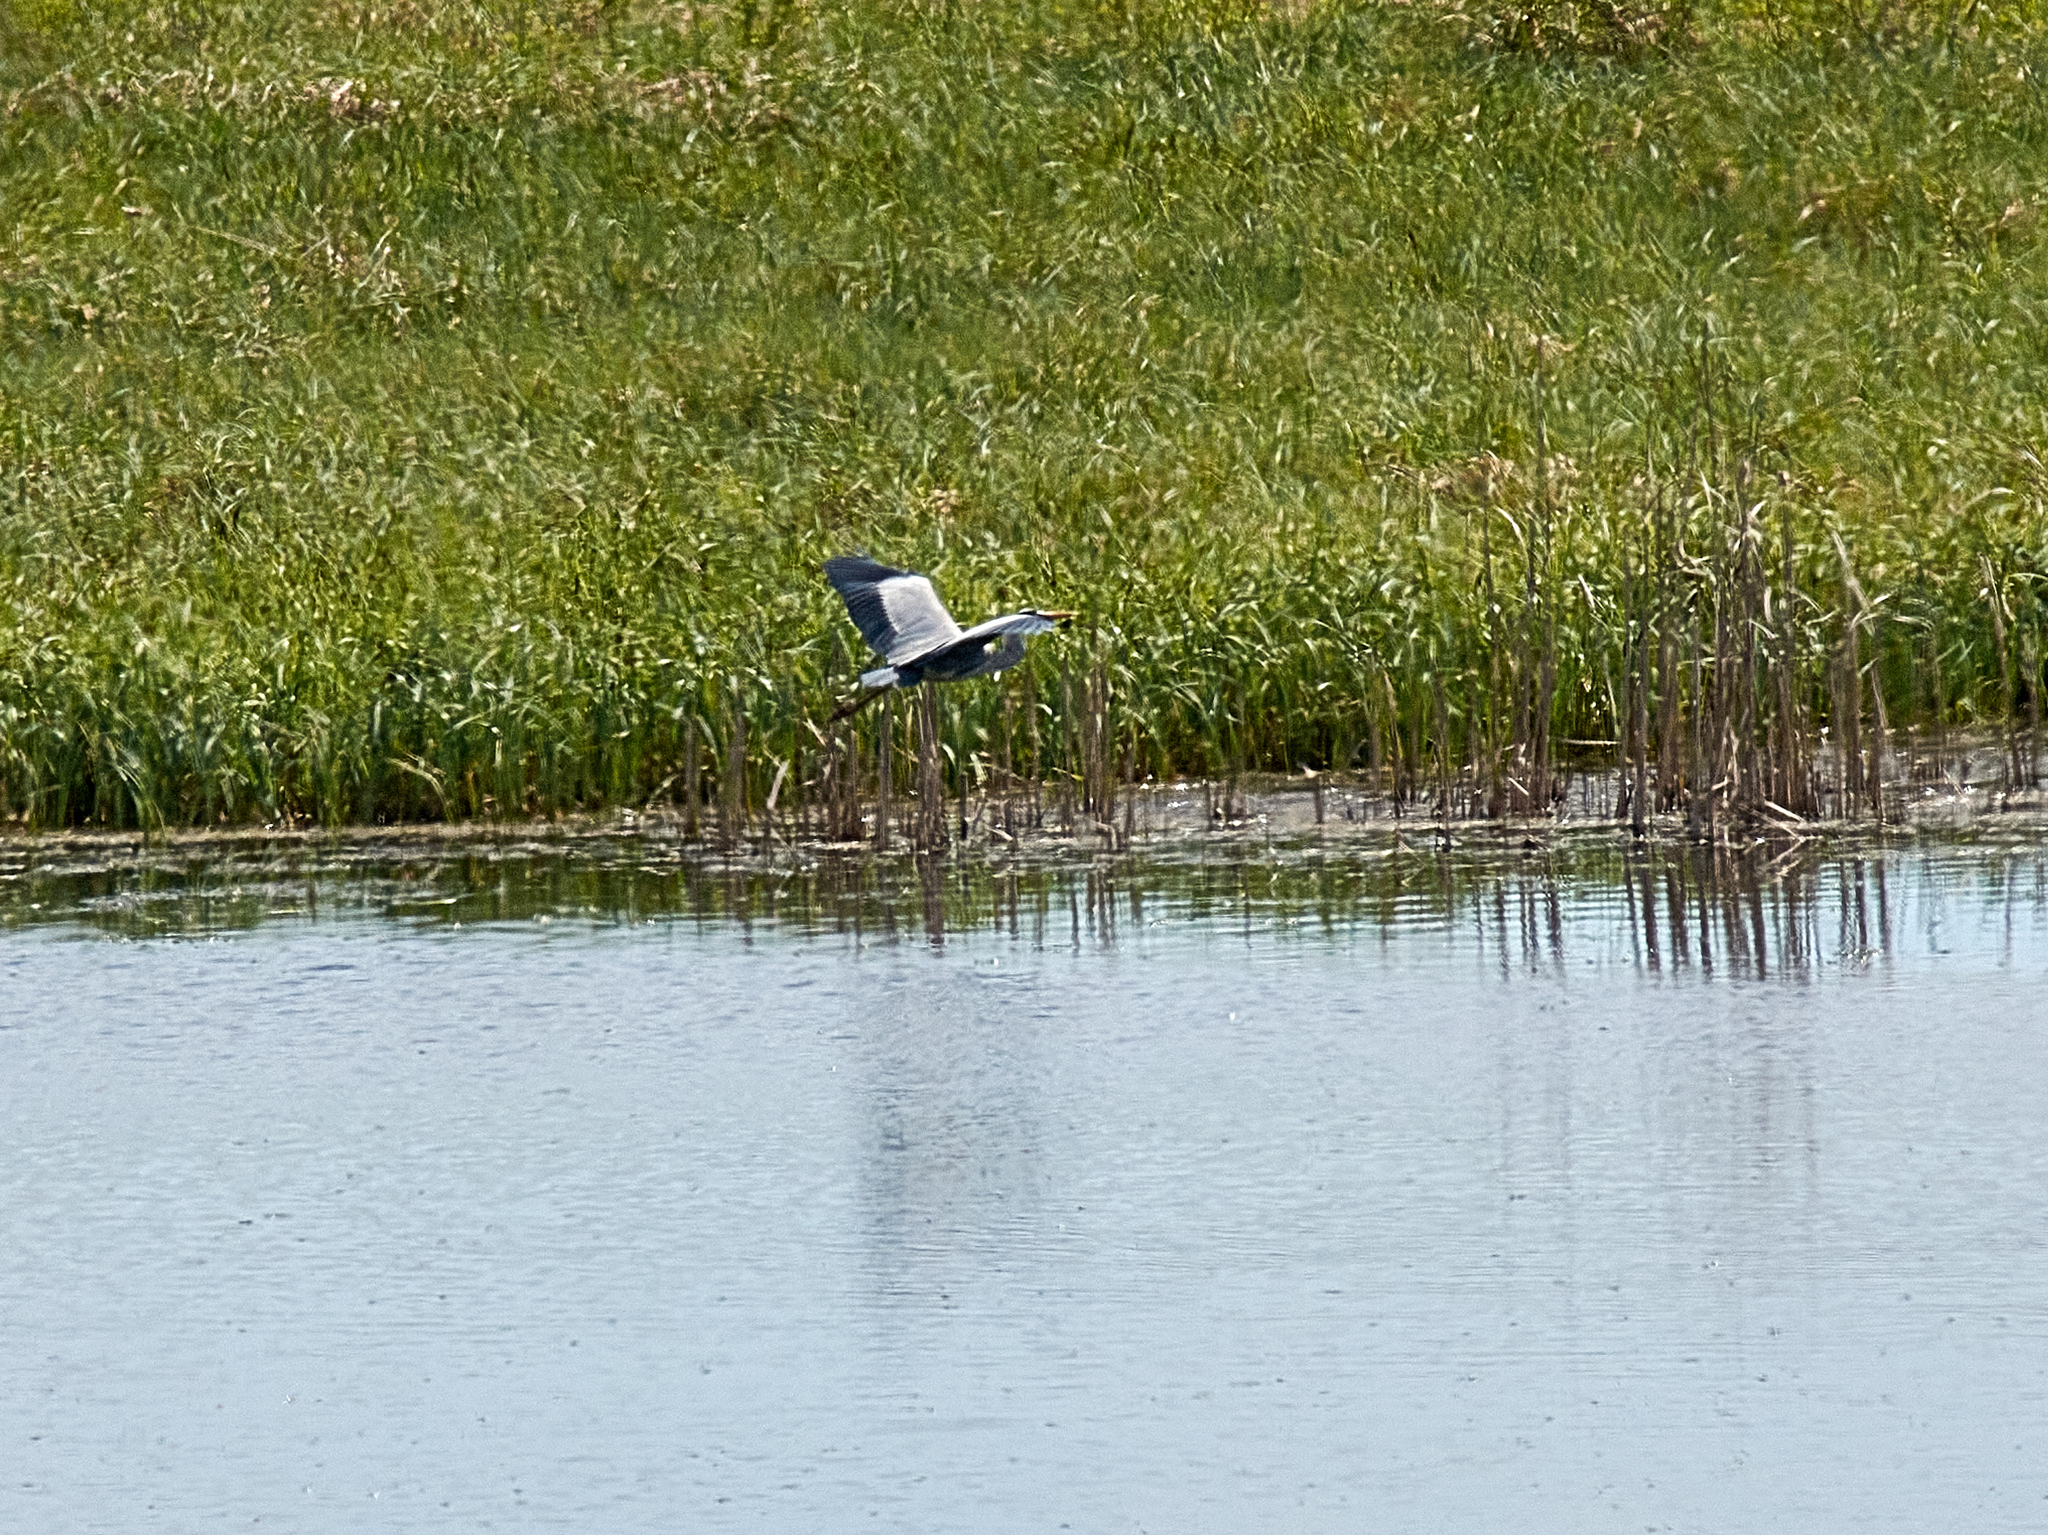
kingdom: Animalia
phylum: Chordata
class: Aves
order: Pelecaniformes
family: Ardeidae
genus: Ardea
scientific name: Ardea cinerea
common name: Grey heron
